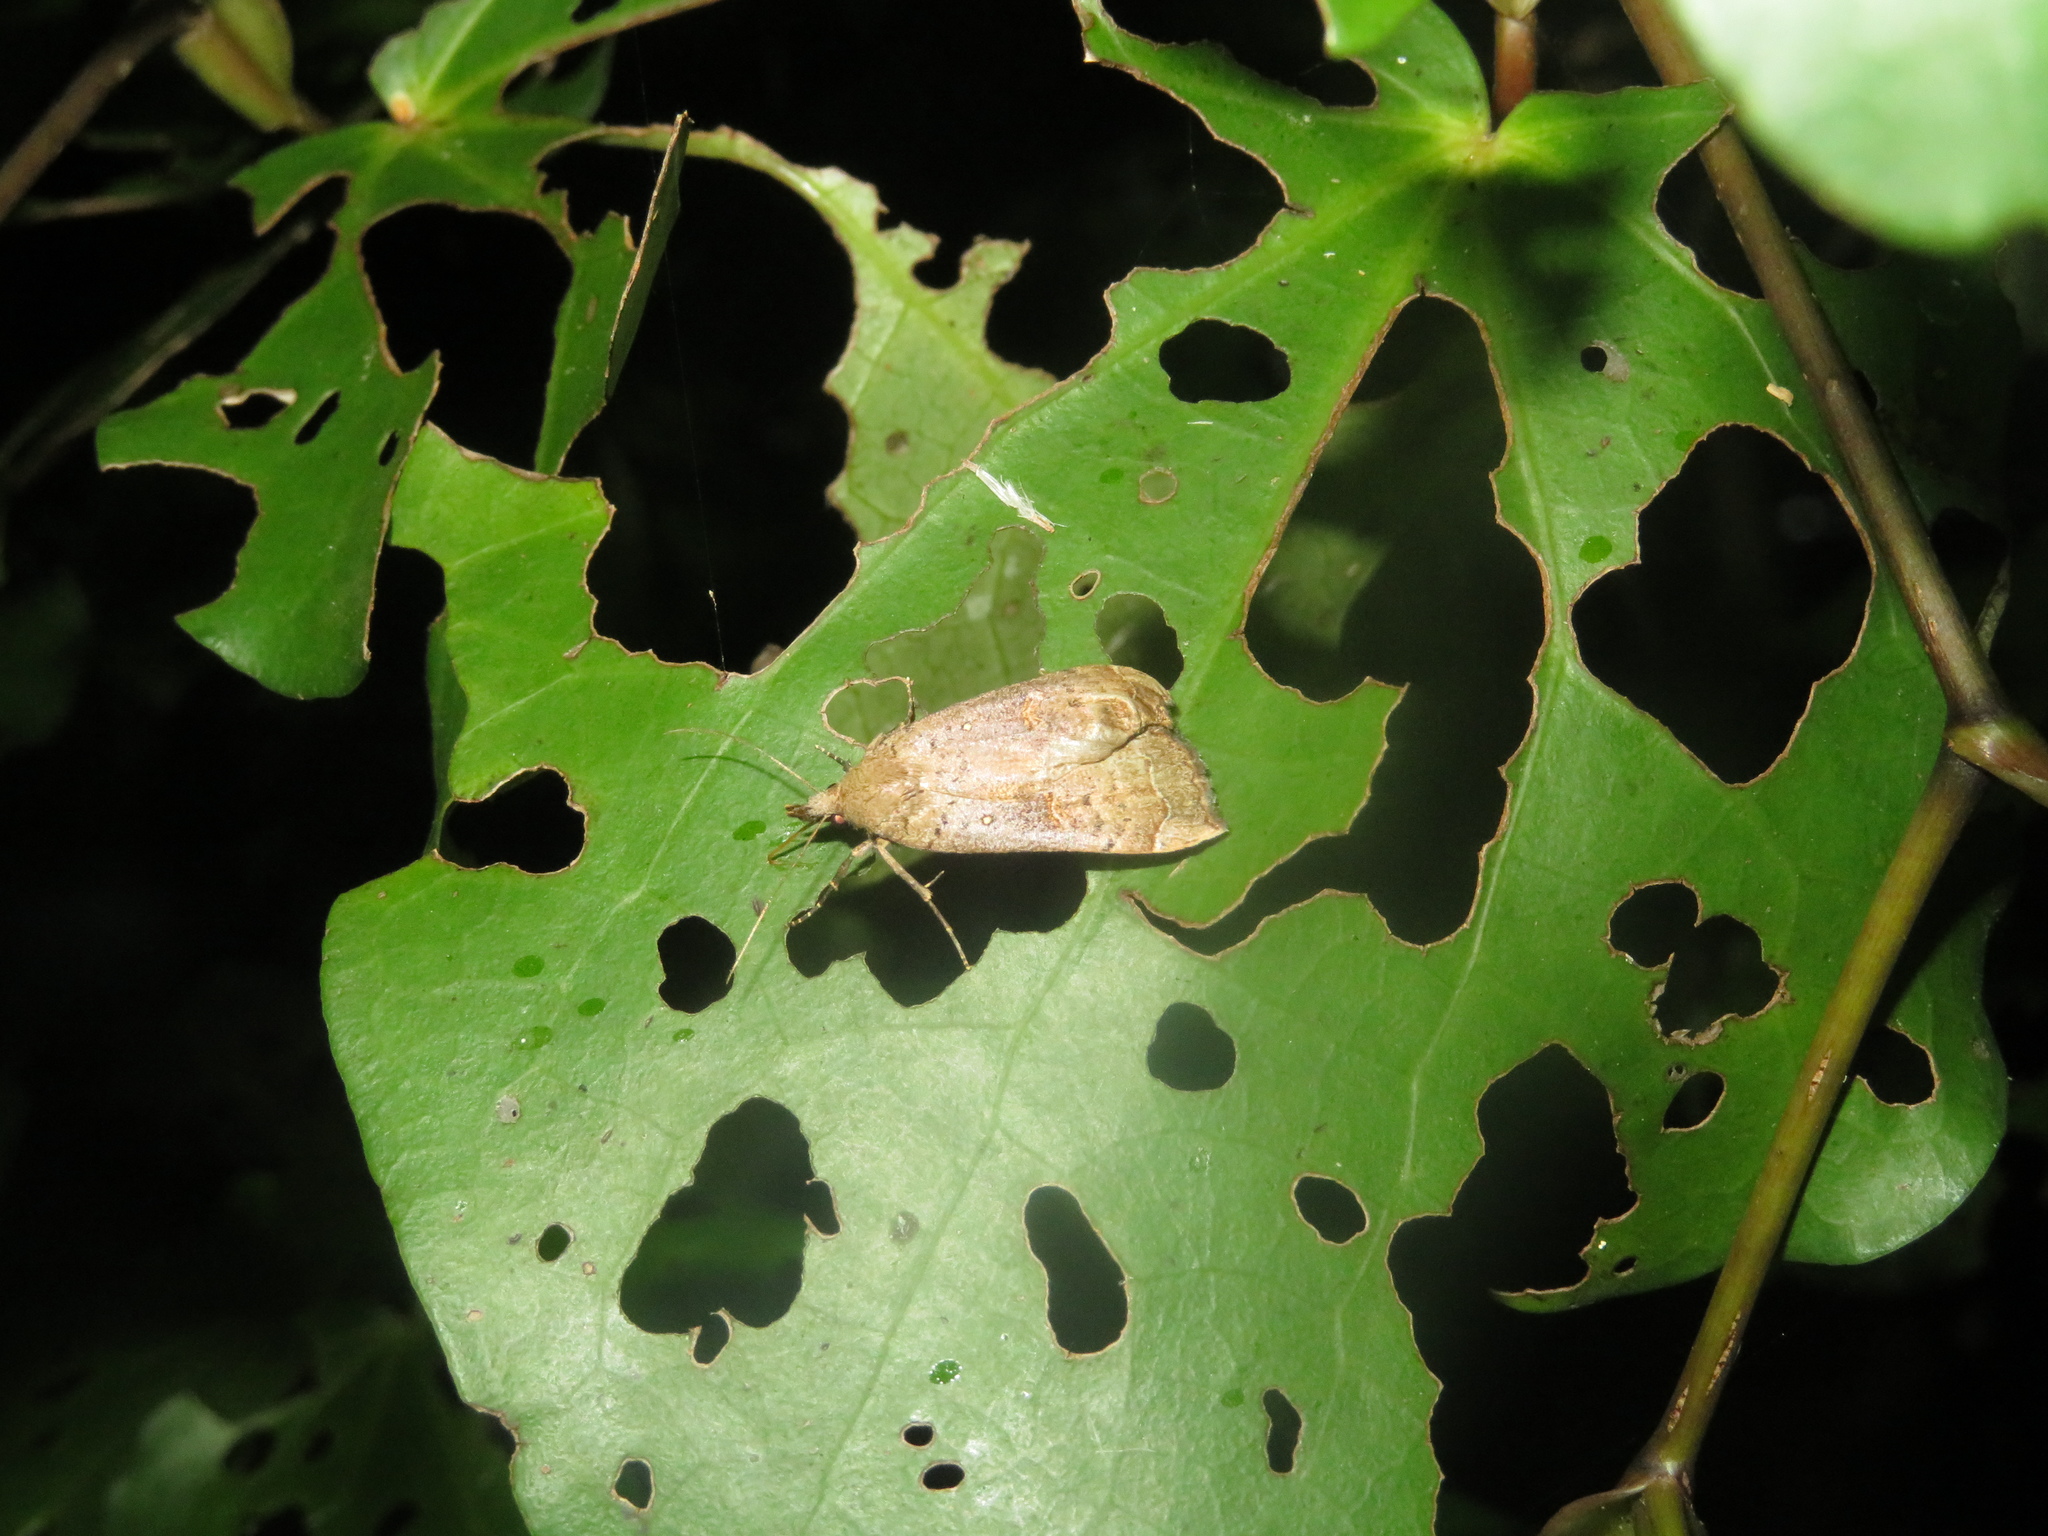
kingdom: Animalia
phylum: Arthropoda
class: Insecta
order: Lepidoptera
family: Erebidae
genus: Rhapsa
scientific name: Rhapsa scotosialis
